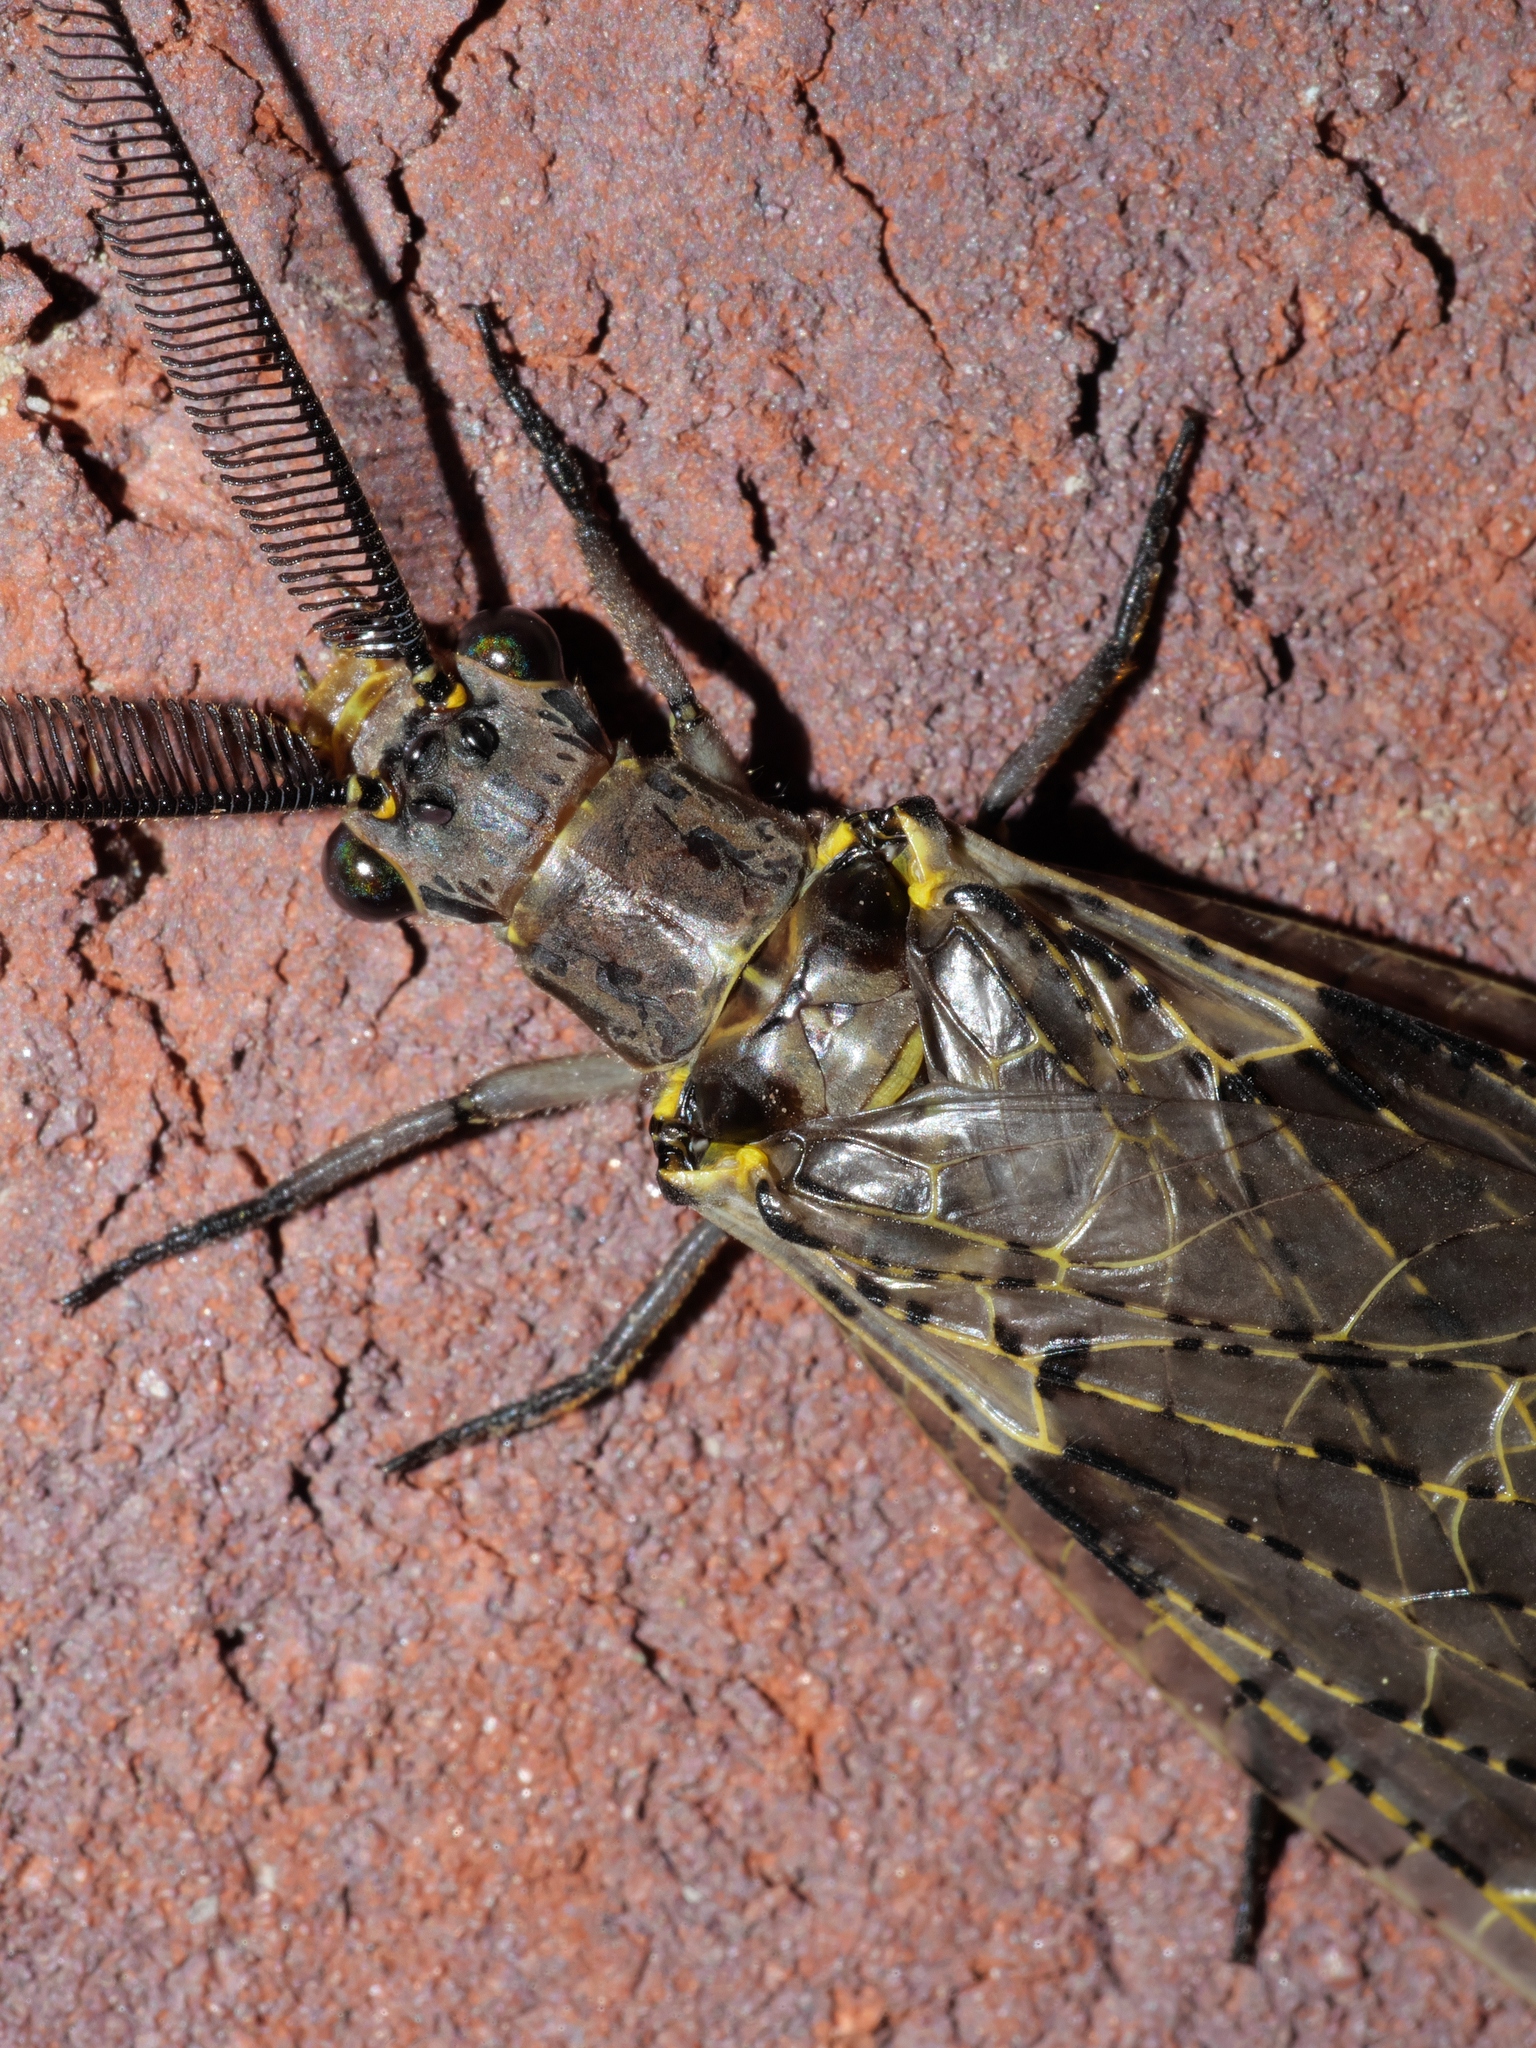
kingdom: Animalia
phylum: Arthropoda
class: Insecta
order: Megaloptera
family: Corydalidae
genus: Chauliodes
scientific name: Chauliodes rastricornis
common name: Spring fishfly
